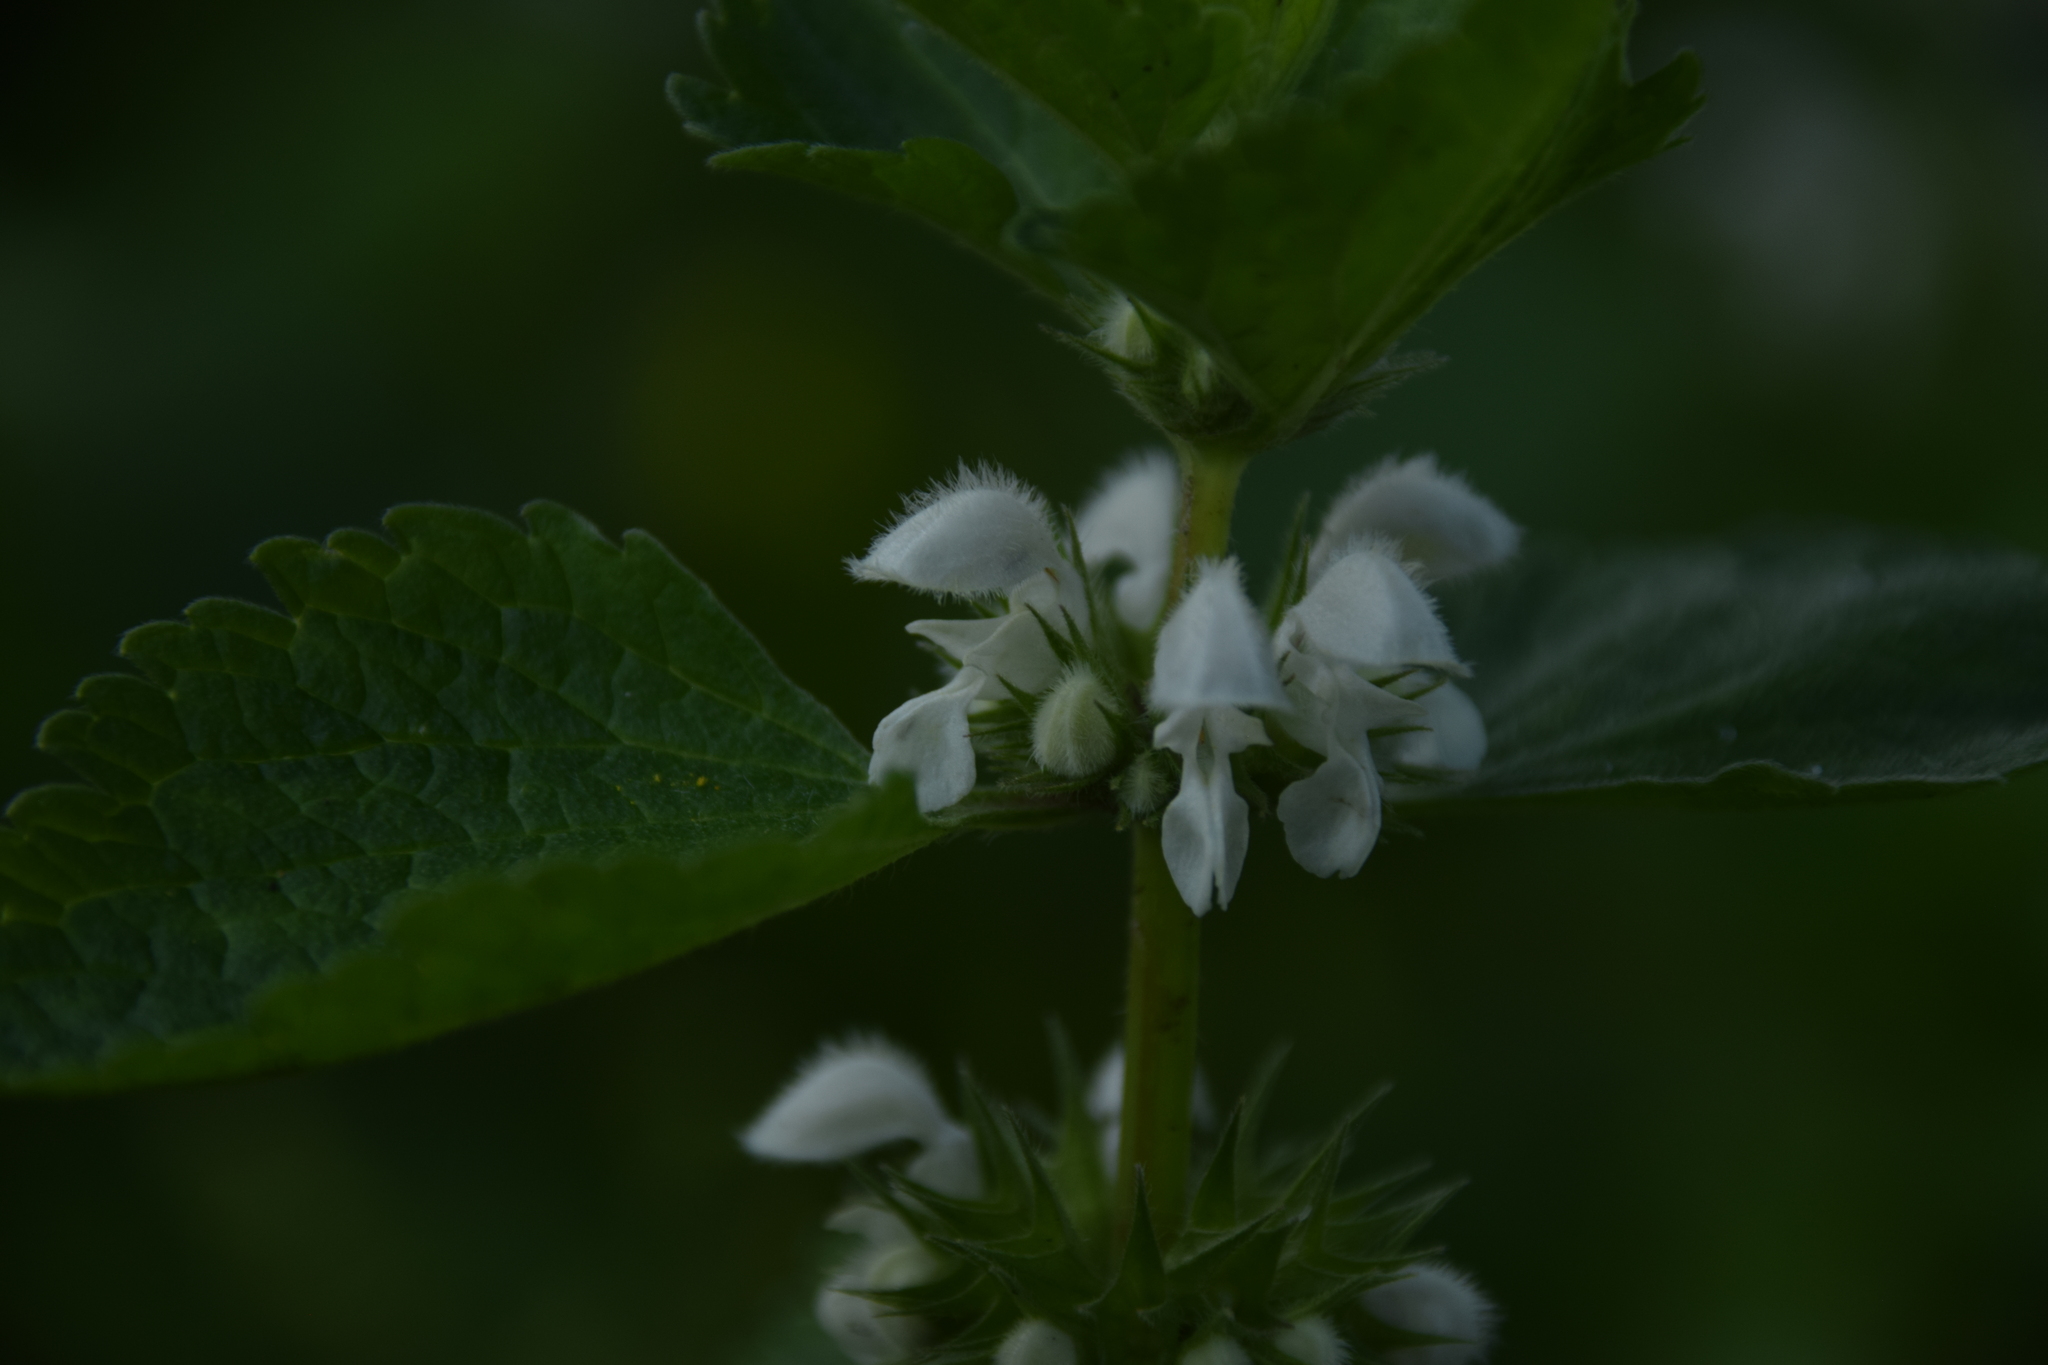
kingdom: Plantae
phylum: Tracheophyta
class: Magnoliopsida
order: Lamiales
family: Lamiaceae
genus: Lamium
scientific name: Lamium moschatum
